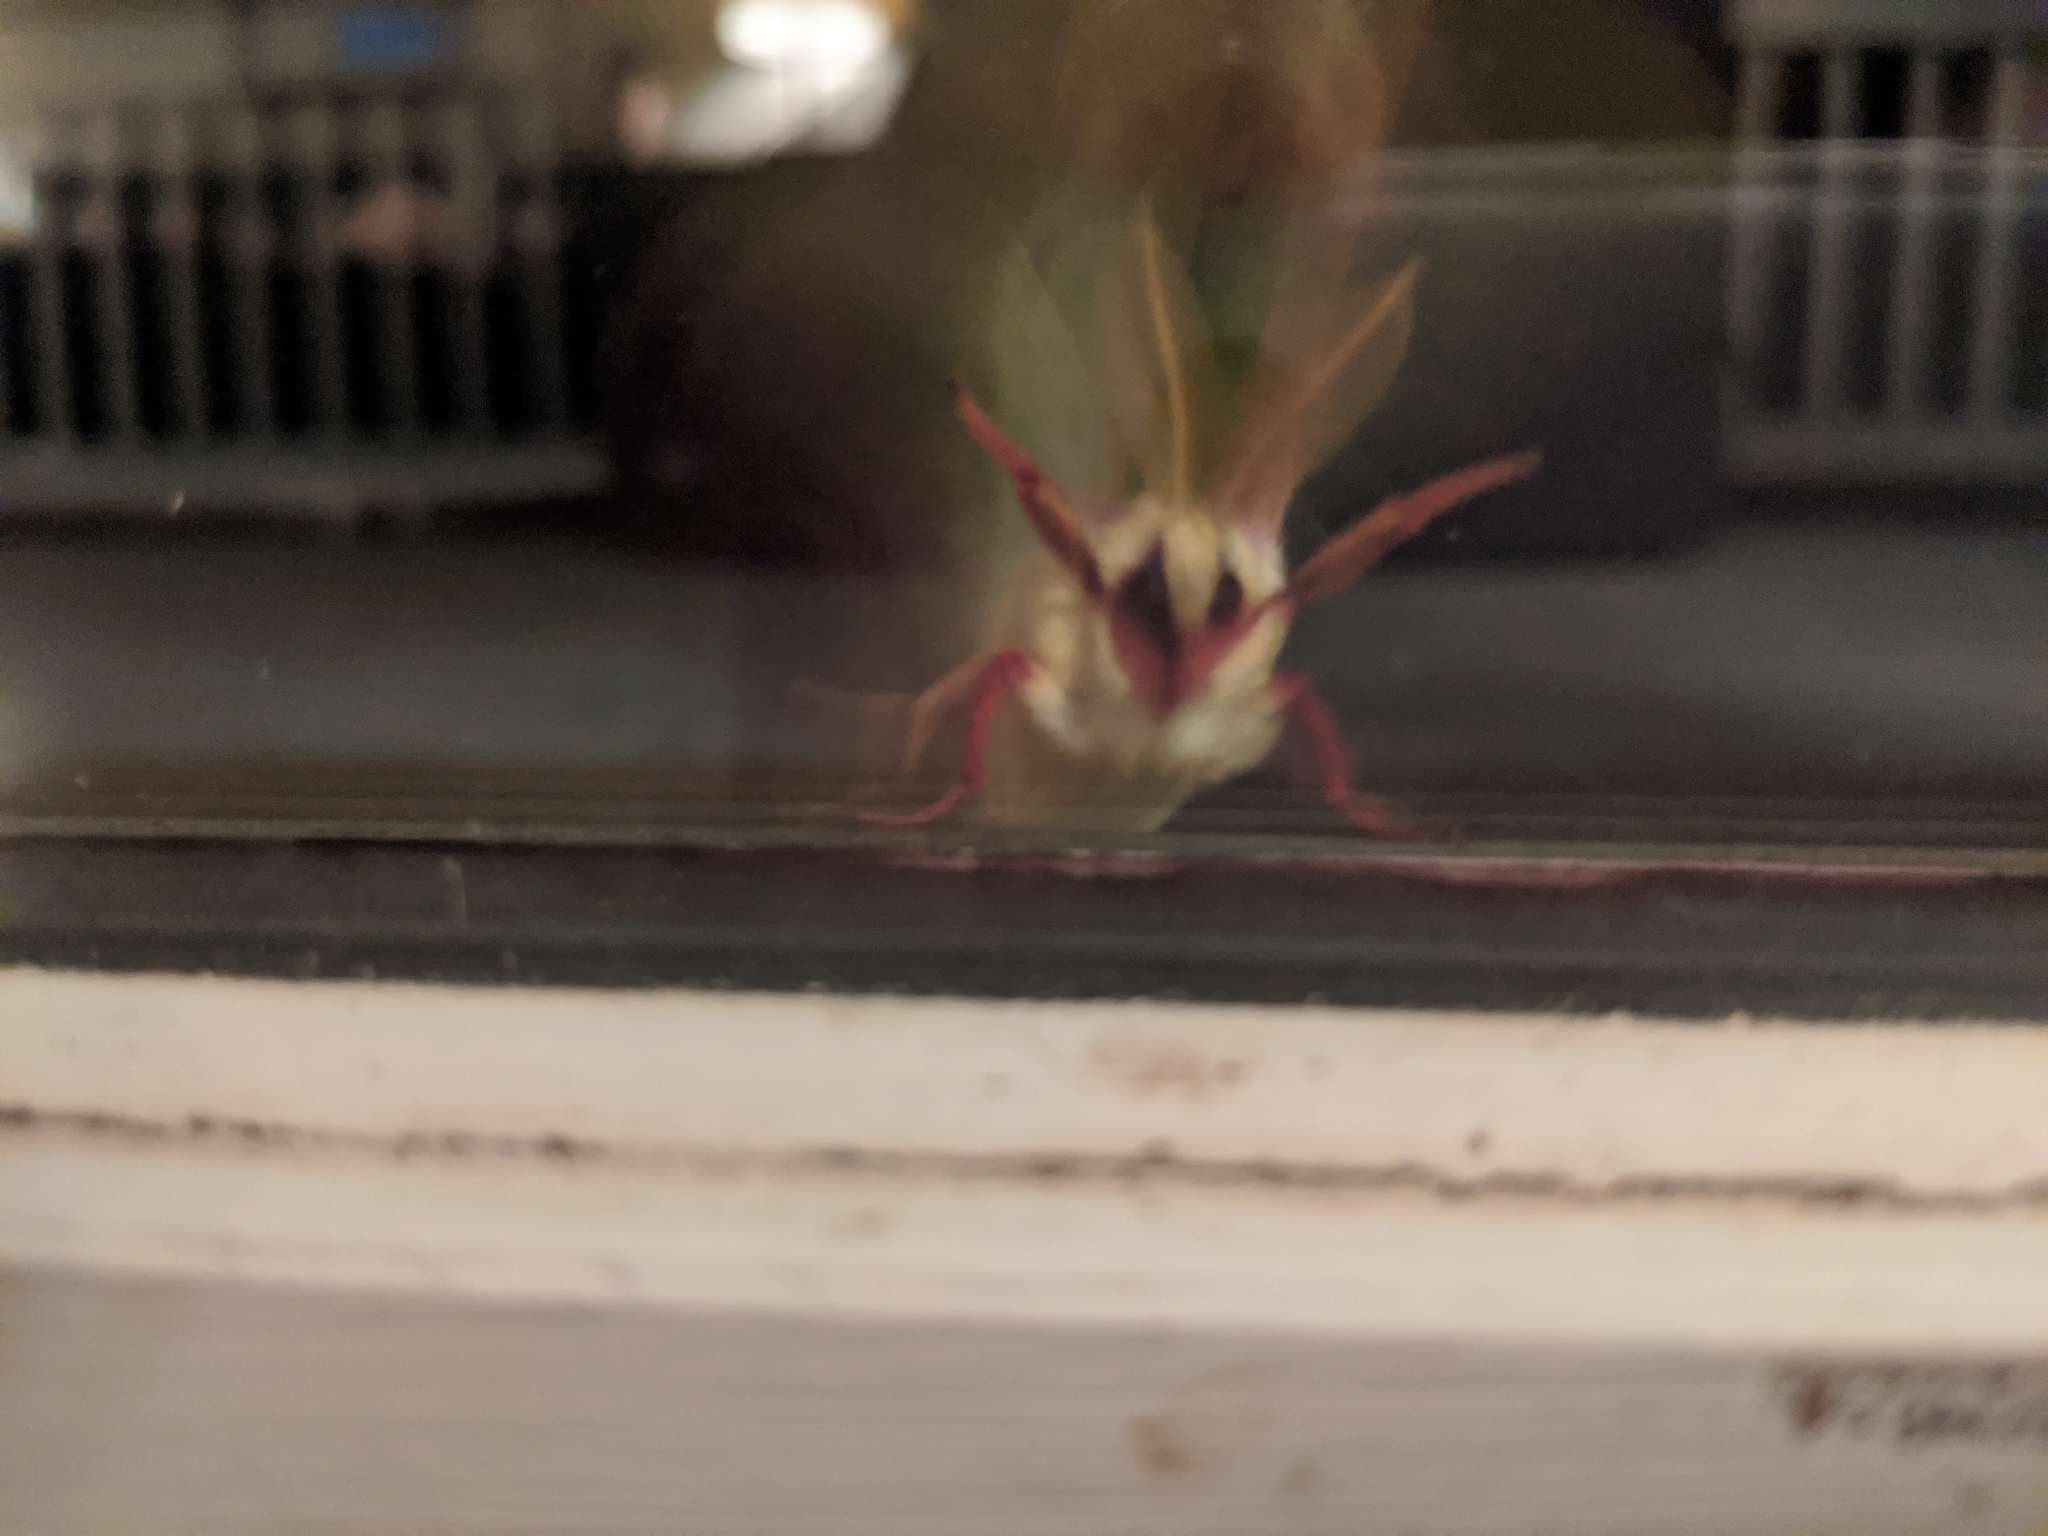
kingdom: Animalia
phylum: Arthropoda
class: Insecta
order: Lepidoptera
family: Saturniidae
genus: Actias
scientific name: Actias luna
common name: Luna moth
